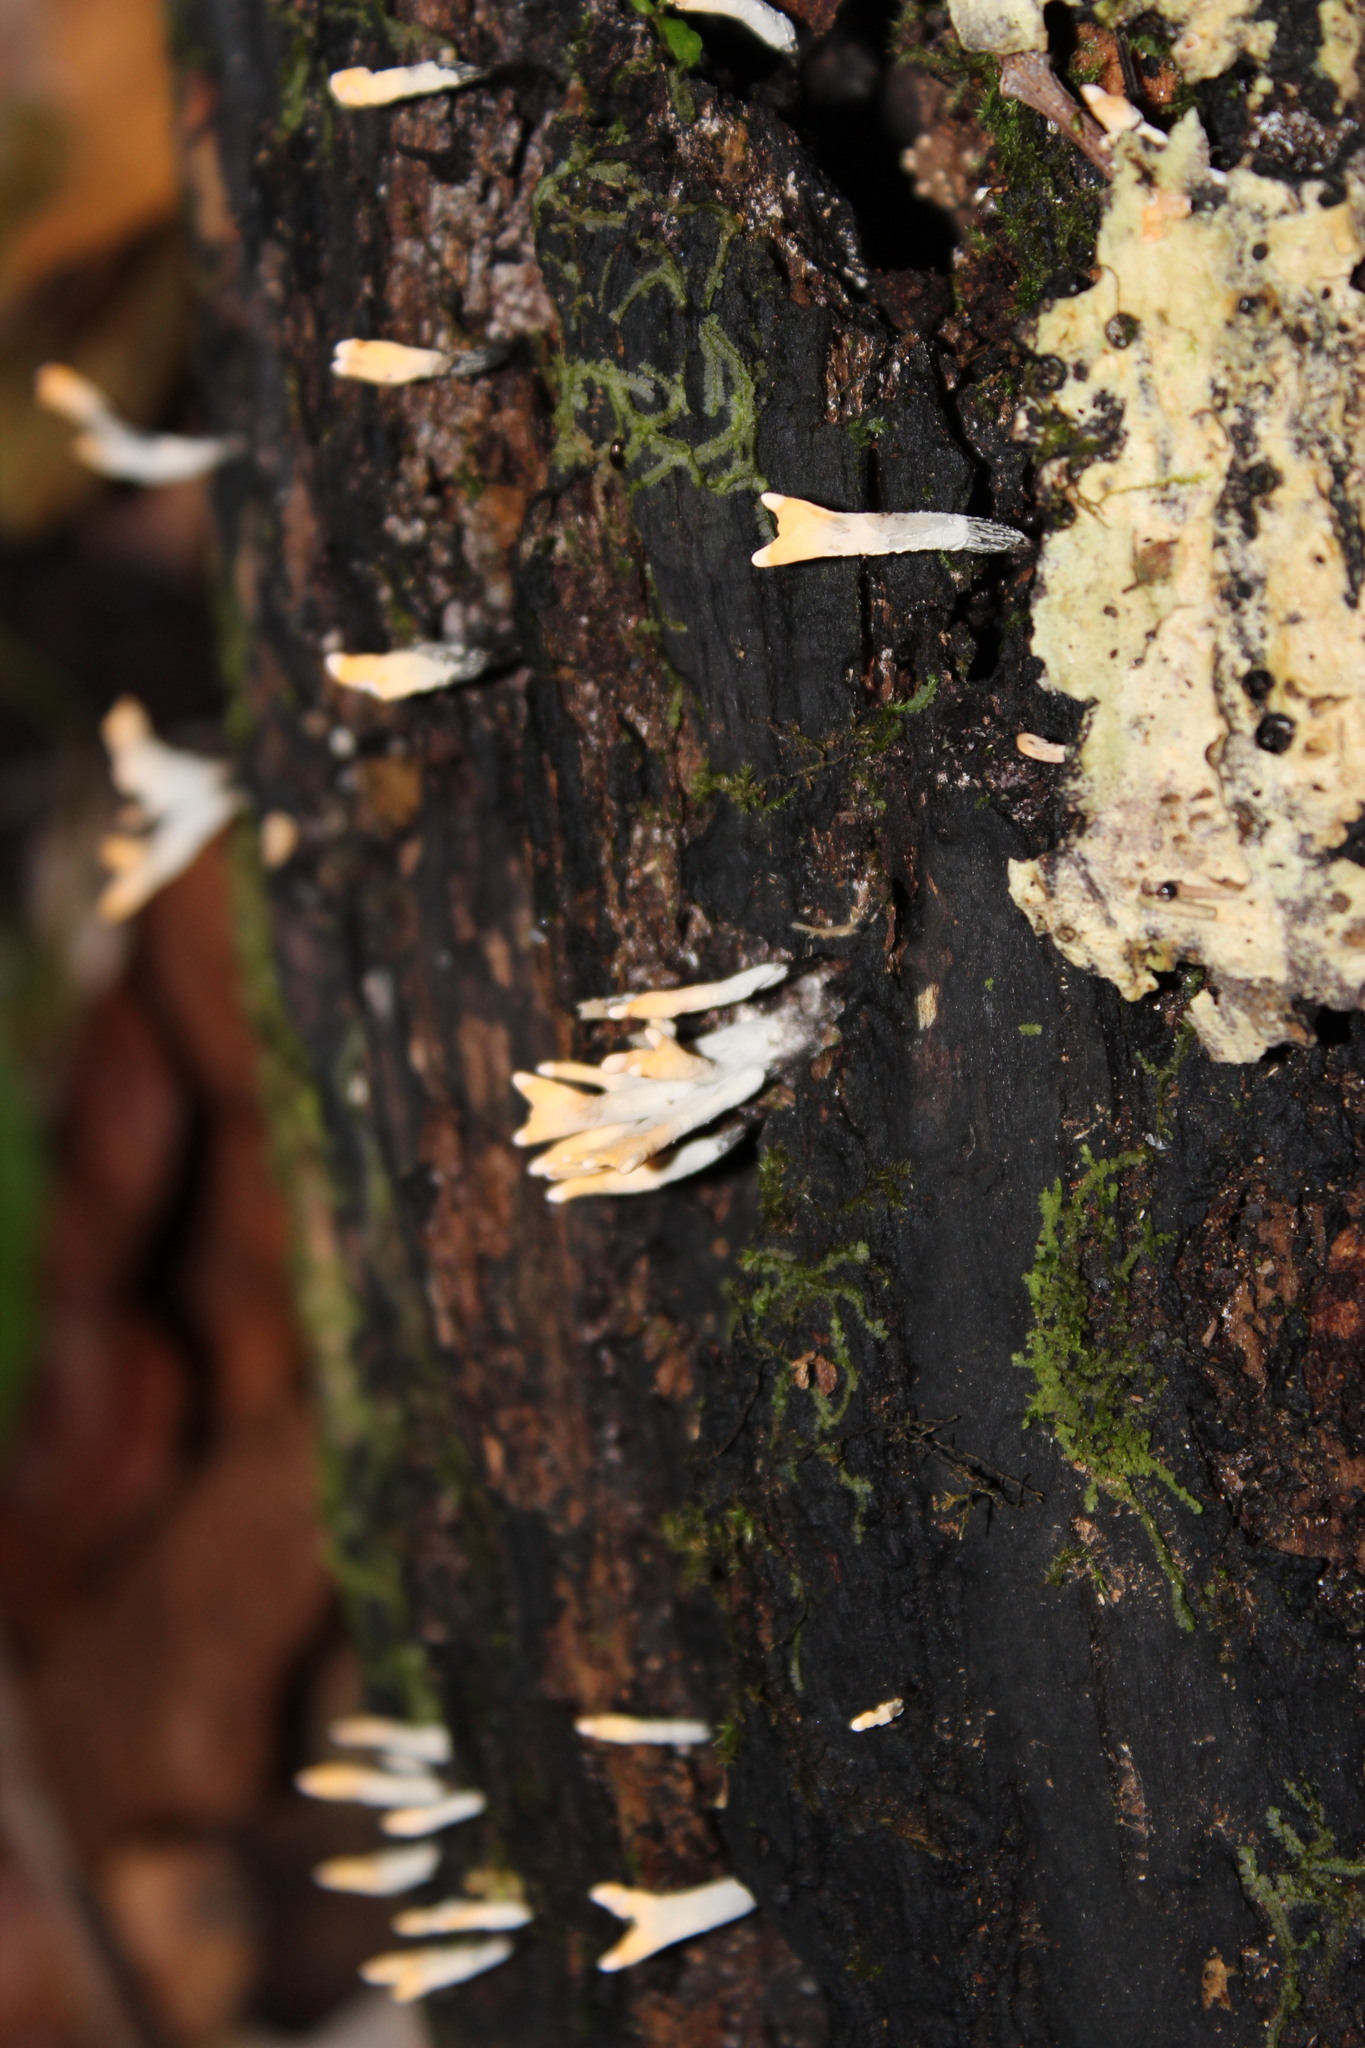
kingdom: Fungi
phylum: Ascomycota
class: Sordariomycetes
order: Xylariales
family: Xylariaceae
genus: Xylaria
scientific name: Xylaria hypoxylon
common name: Candle-snuff fungus
